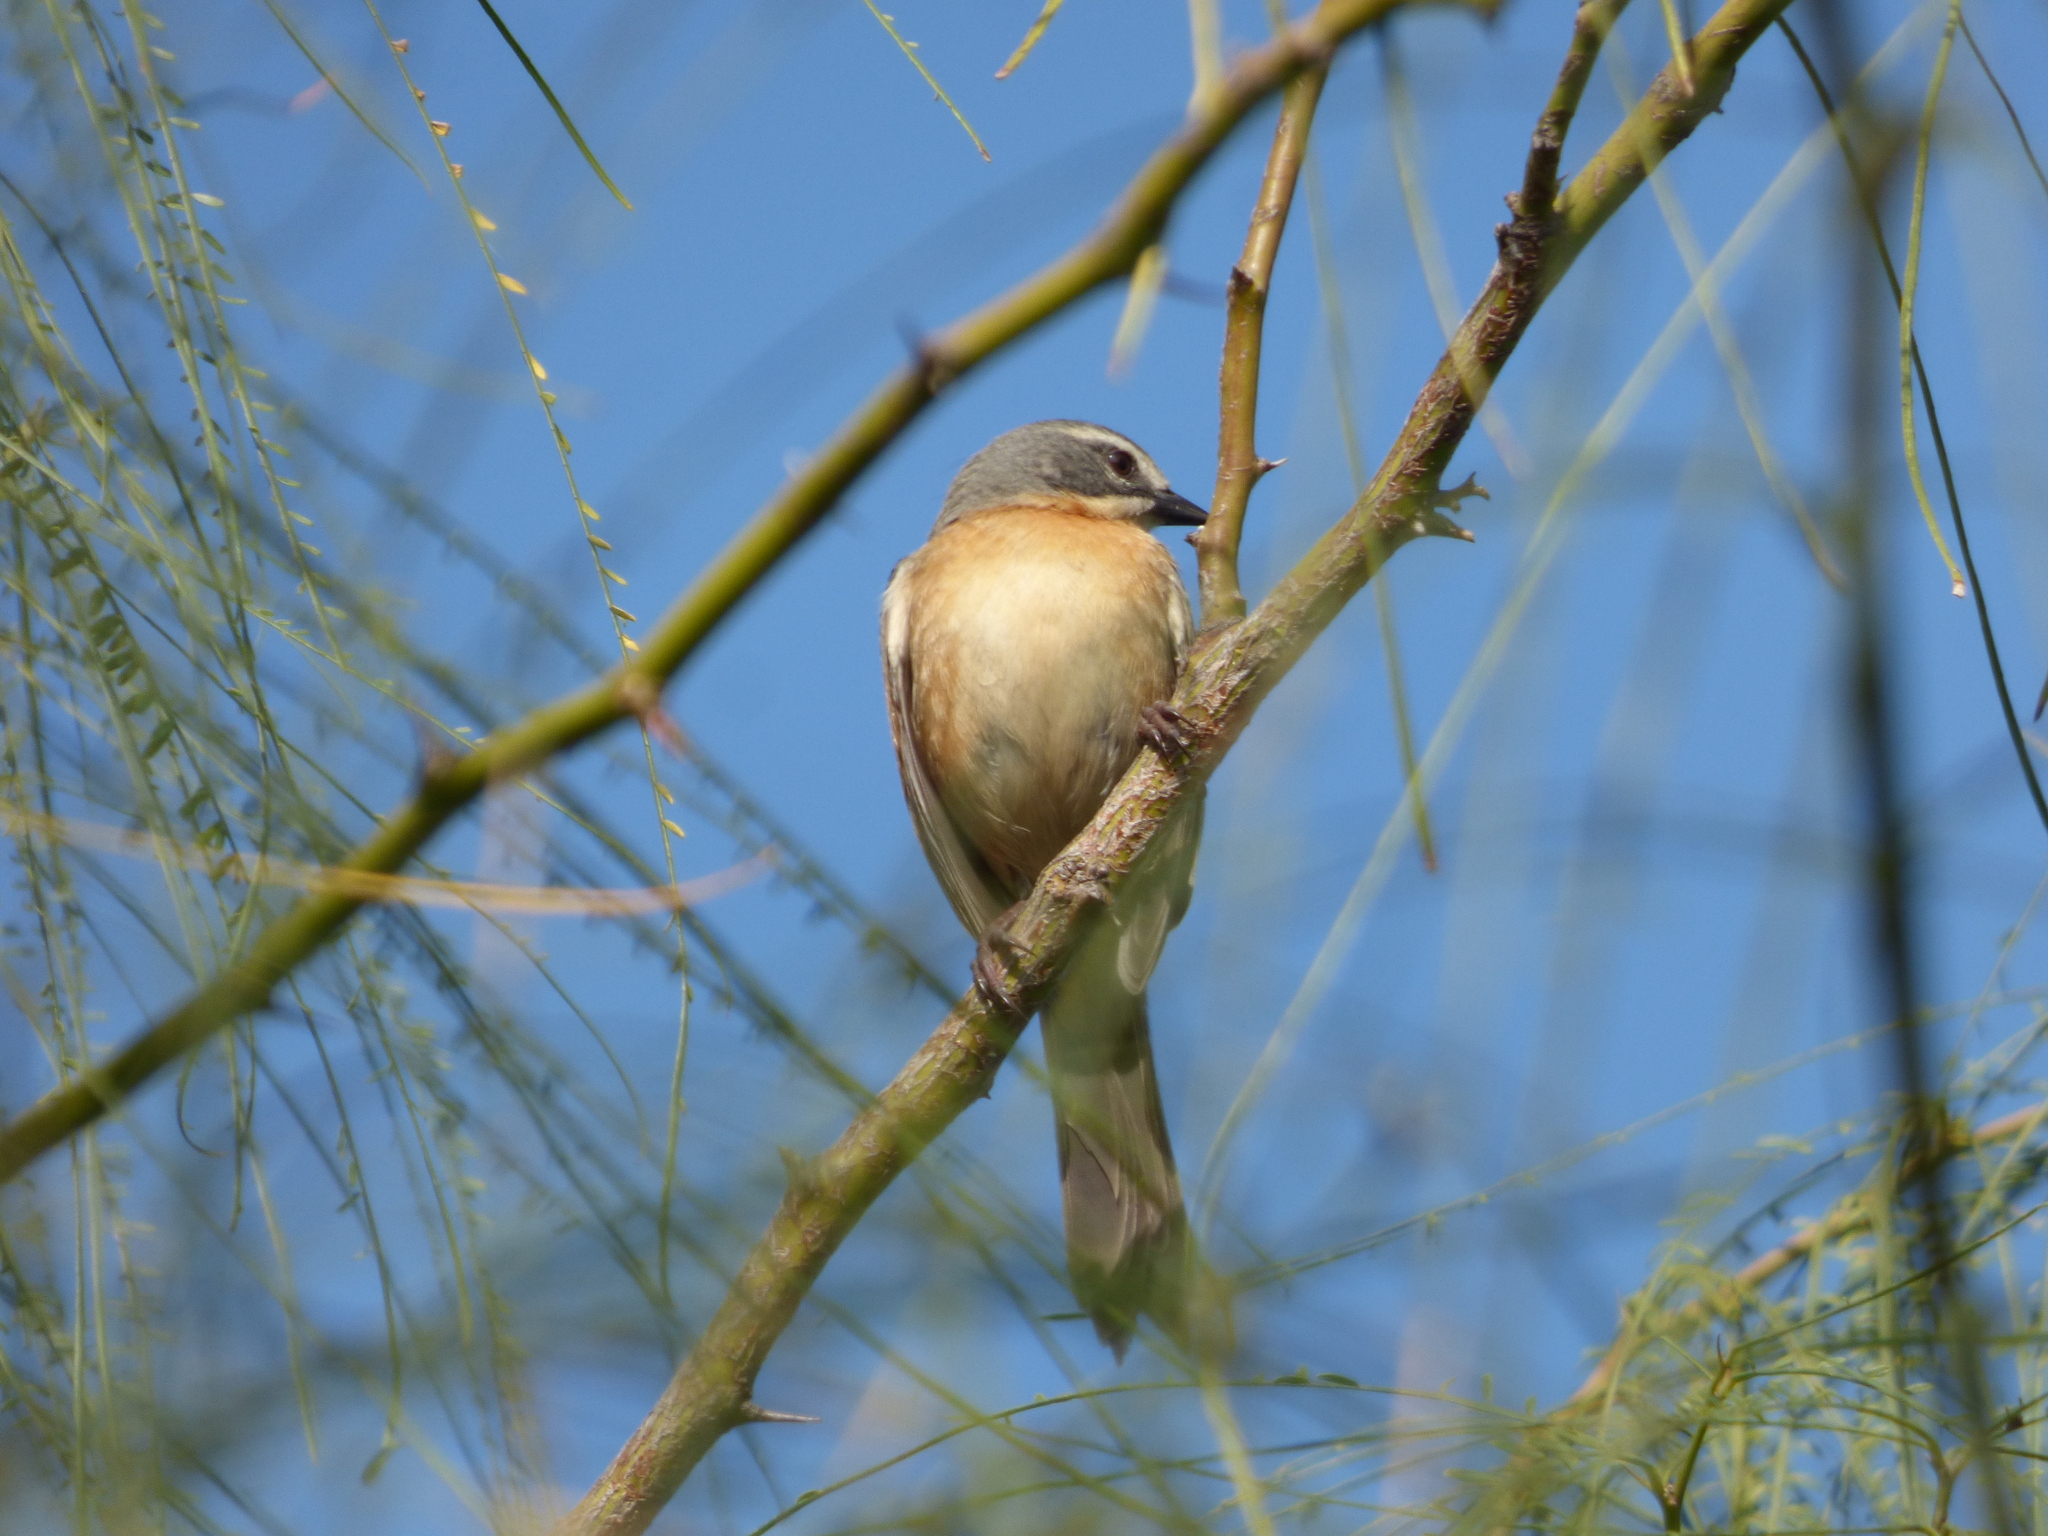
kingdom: Animalia
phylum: Chordata
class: Aves
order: Passeriformes
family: Thraupidae
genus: Donacospiza
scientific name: Donacospiza albifrons
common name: Long-tailed reed finch
